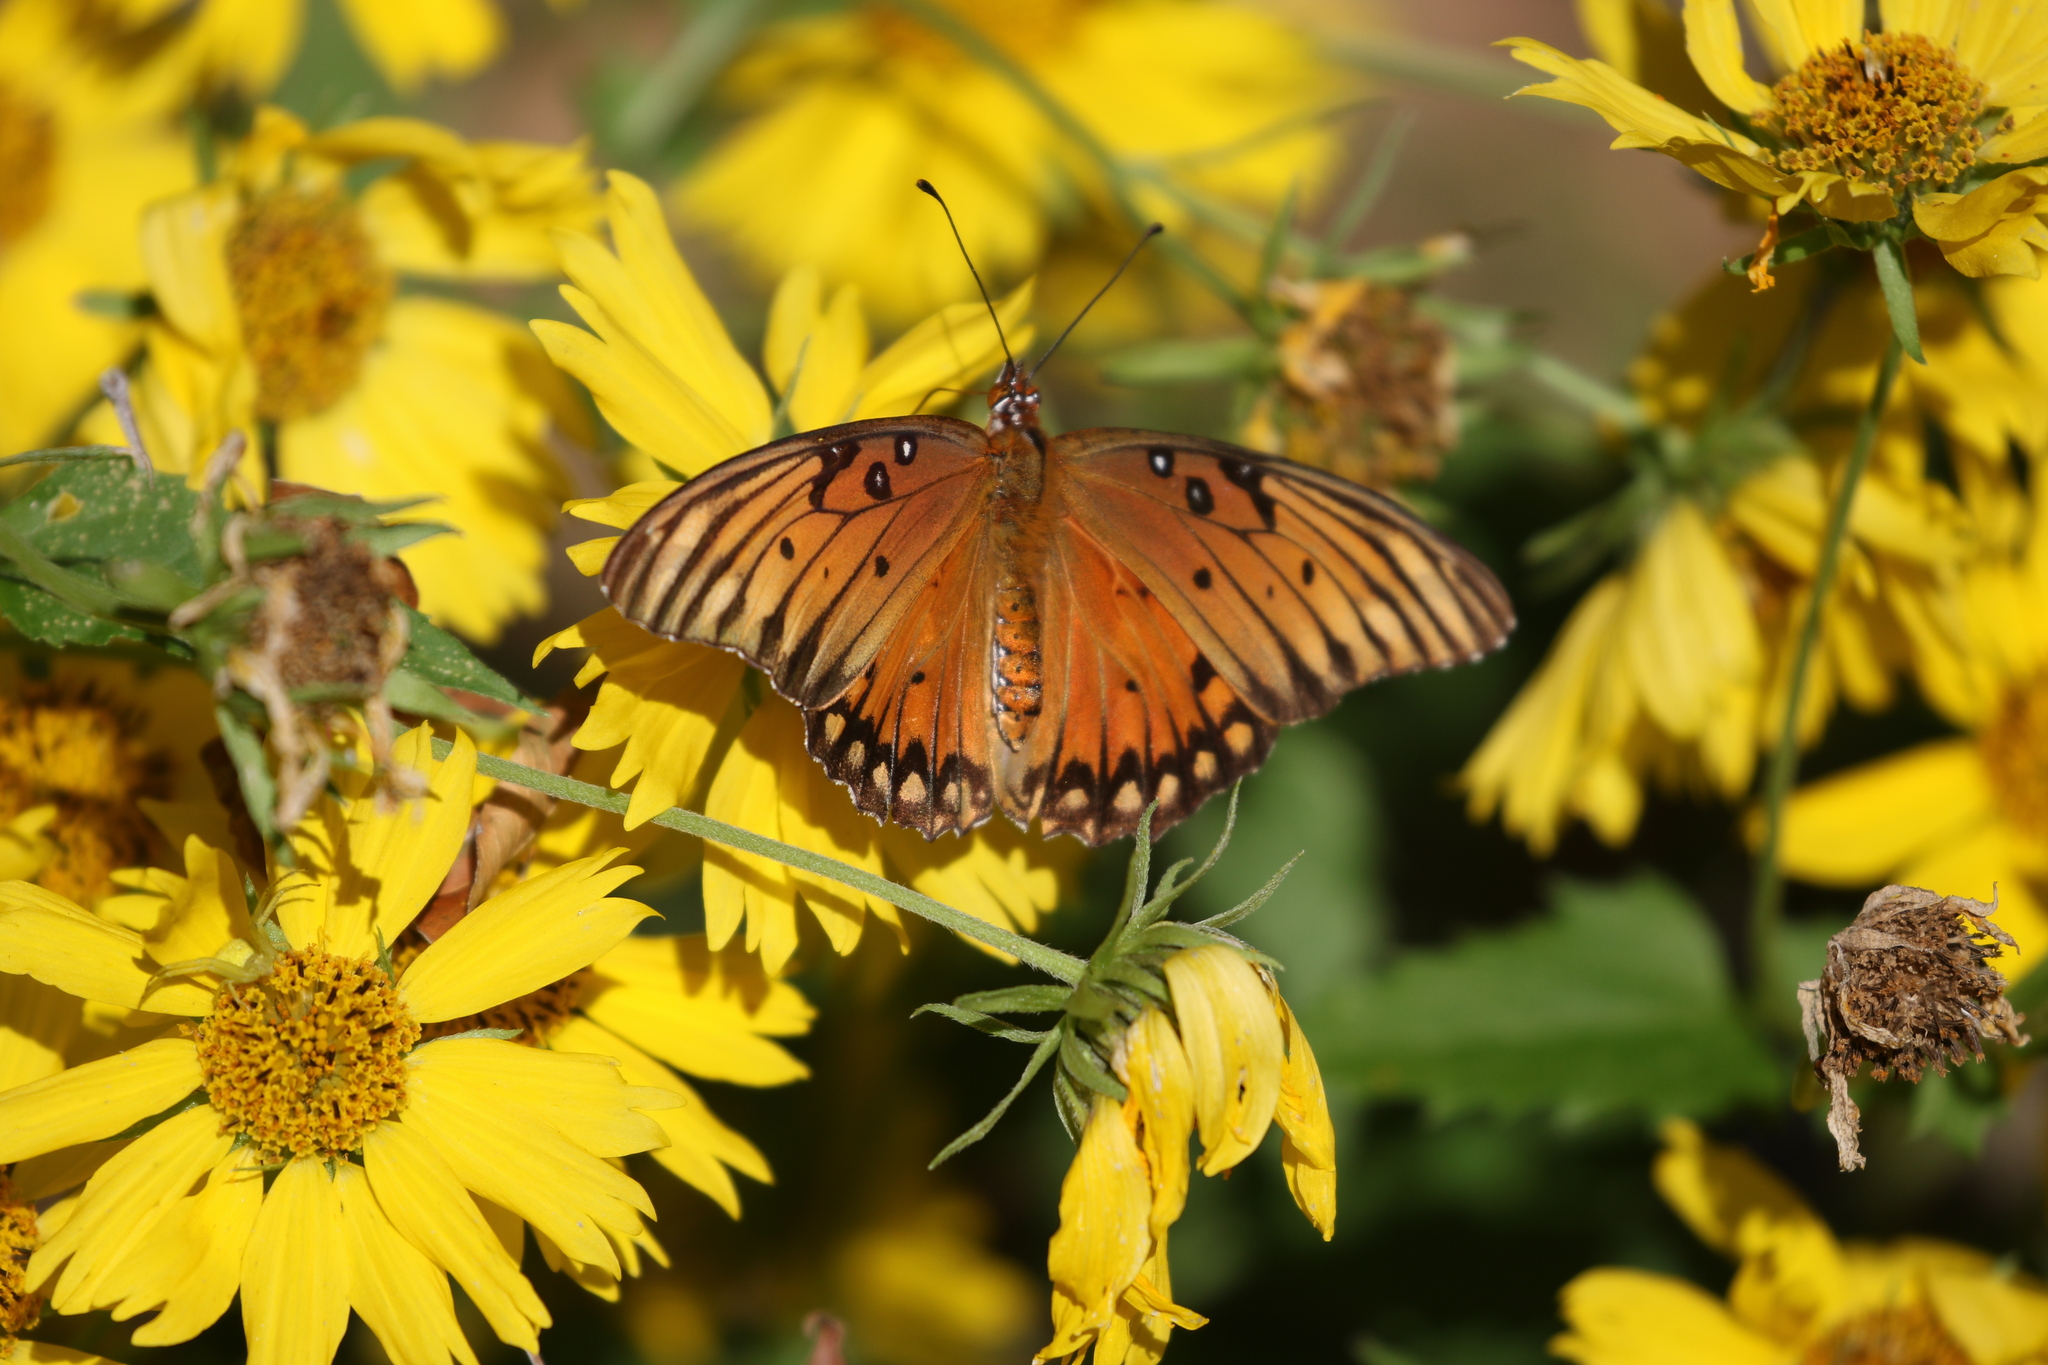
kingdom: Animalia
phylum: Arthropoda
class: Insecta
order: Lepidoptera
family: Nymphalidae
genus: Dione
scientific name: Dione vanillae
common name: Gulf fritillary
